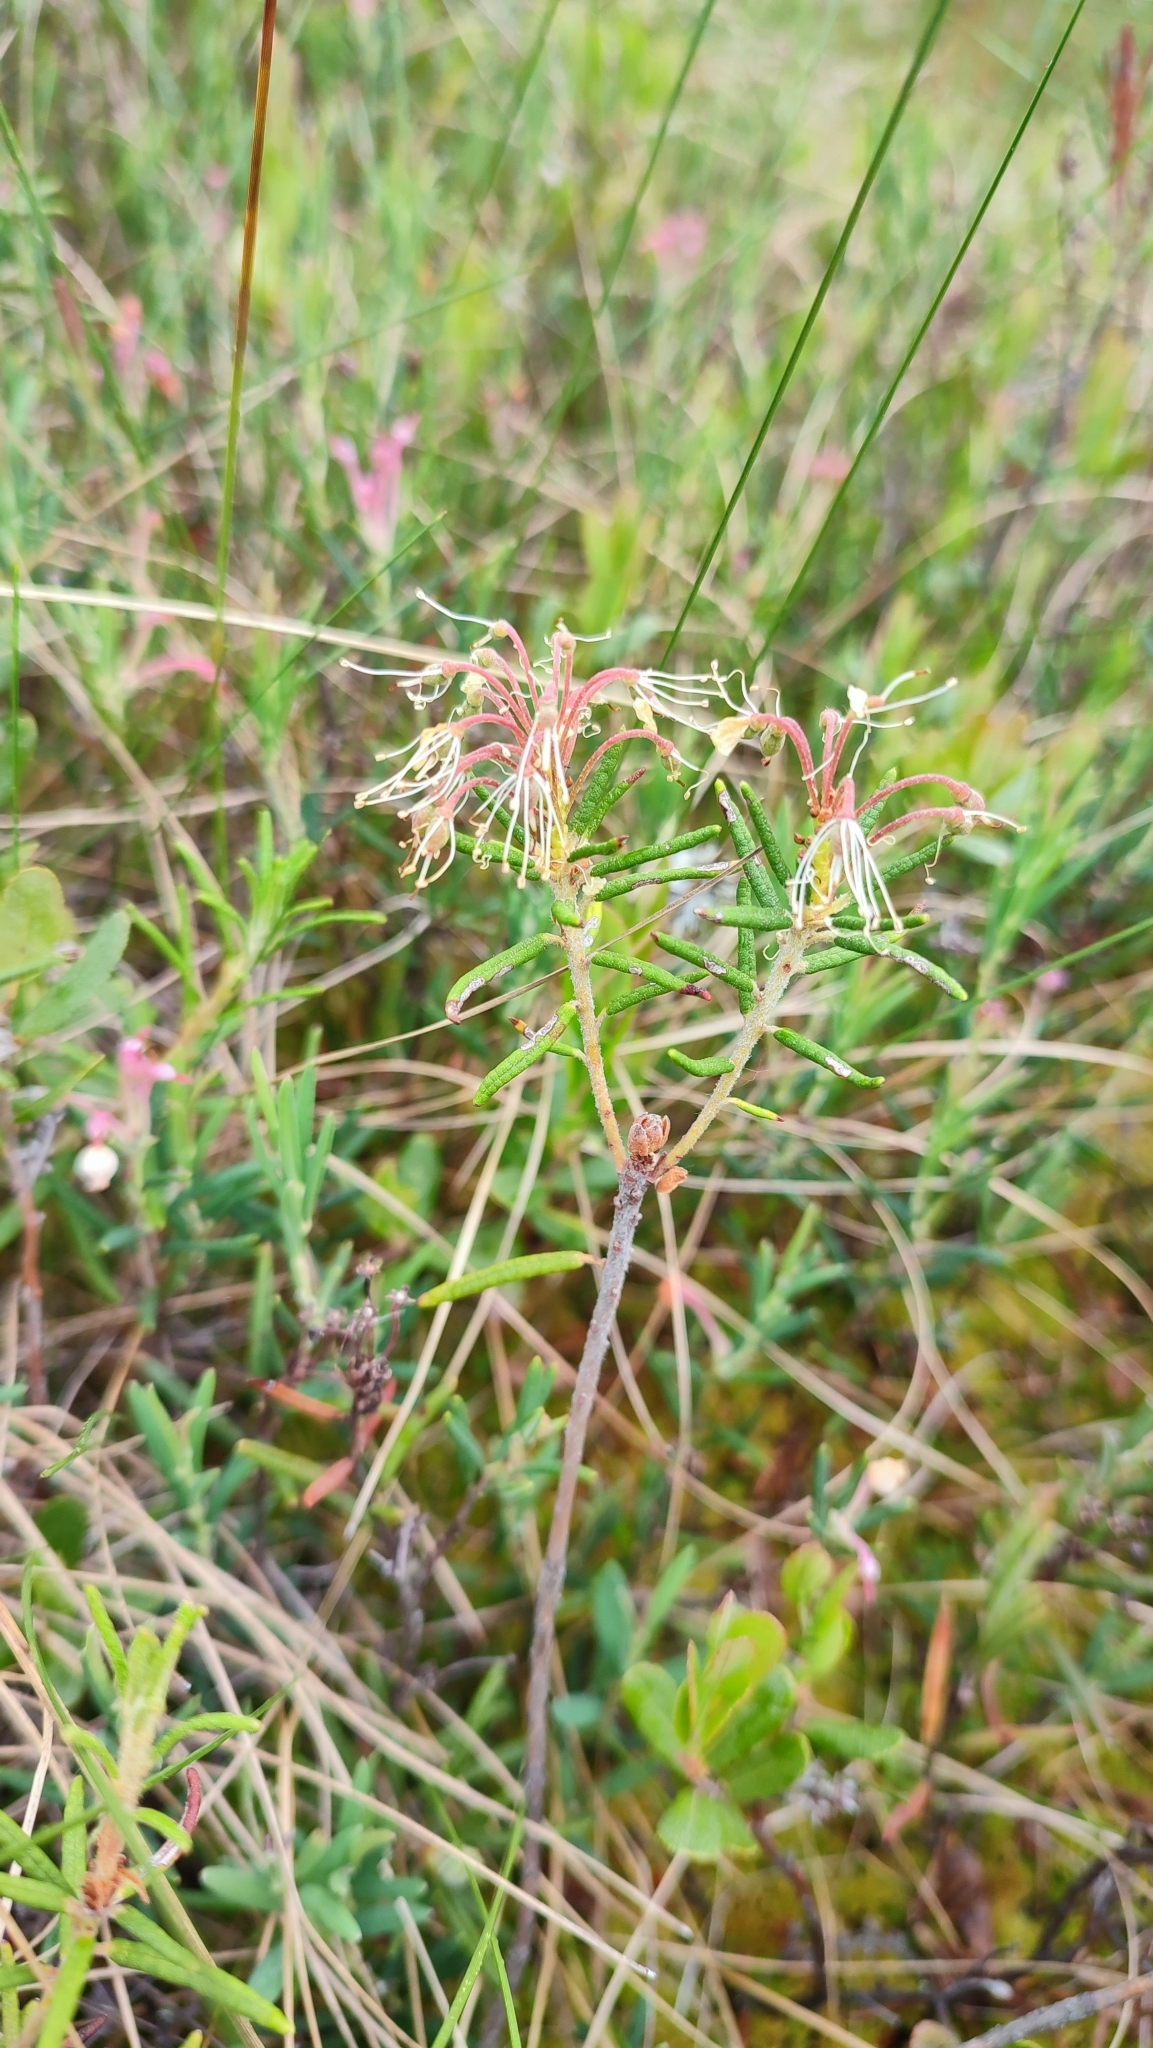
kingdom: Plantae
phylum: Tracheophyta
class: Magnoliopsida
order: Ericales
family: Ericaceae
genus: Rhododendron
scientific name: Rhododendron tomentosum
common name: Marsh labrador tea
